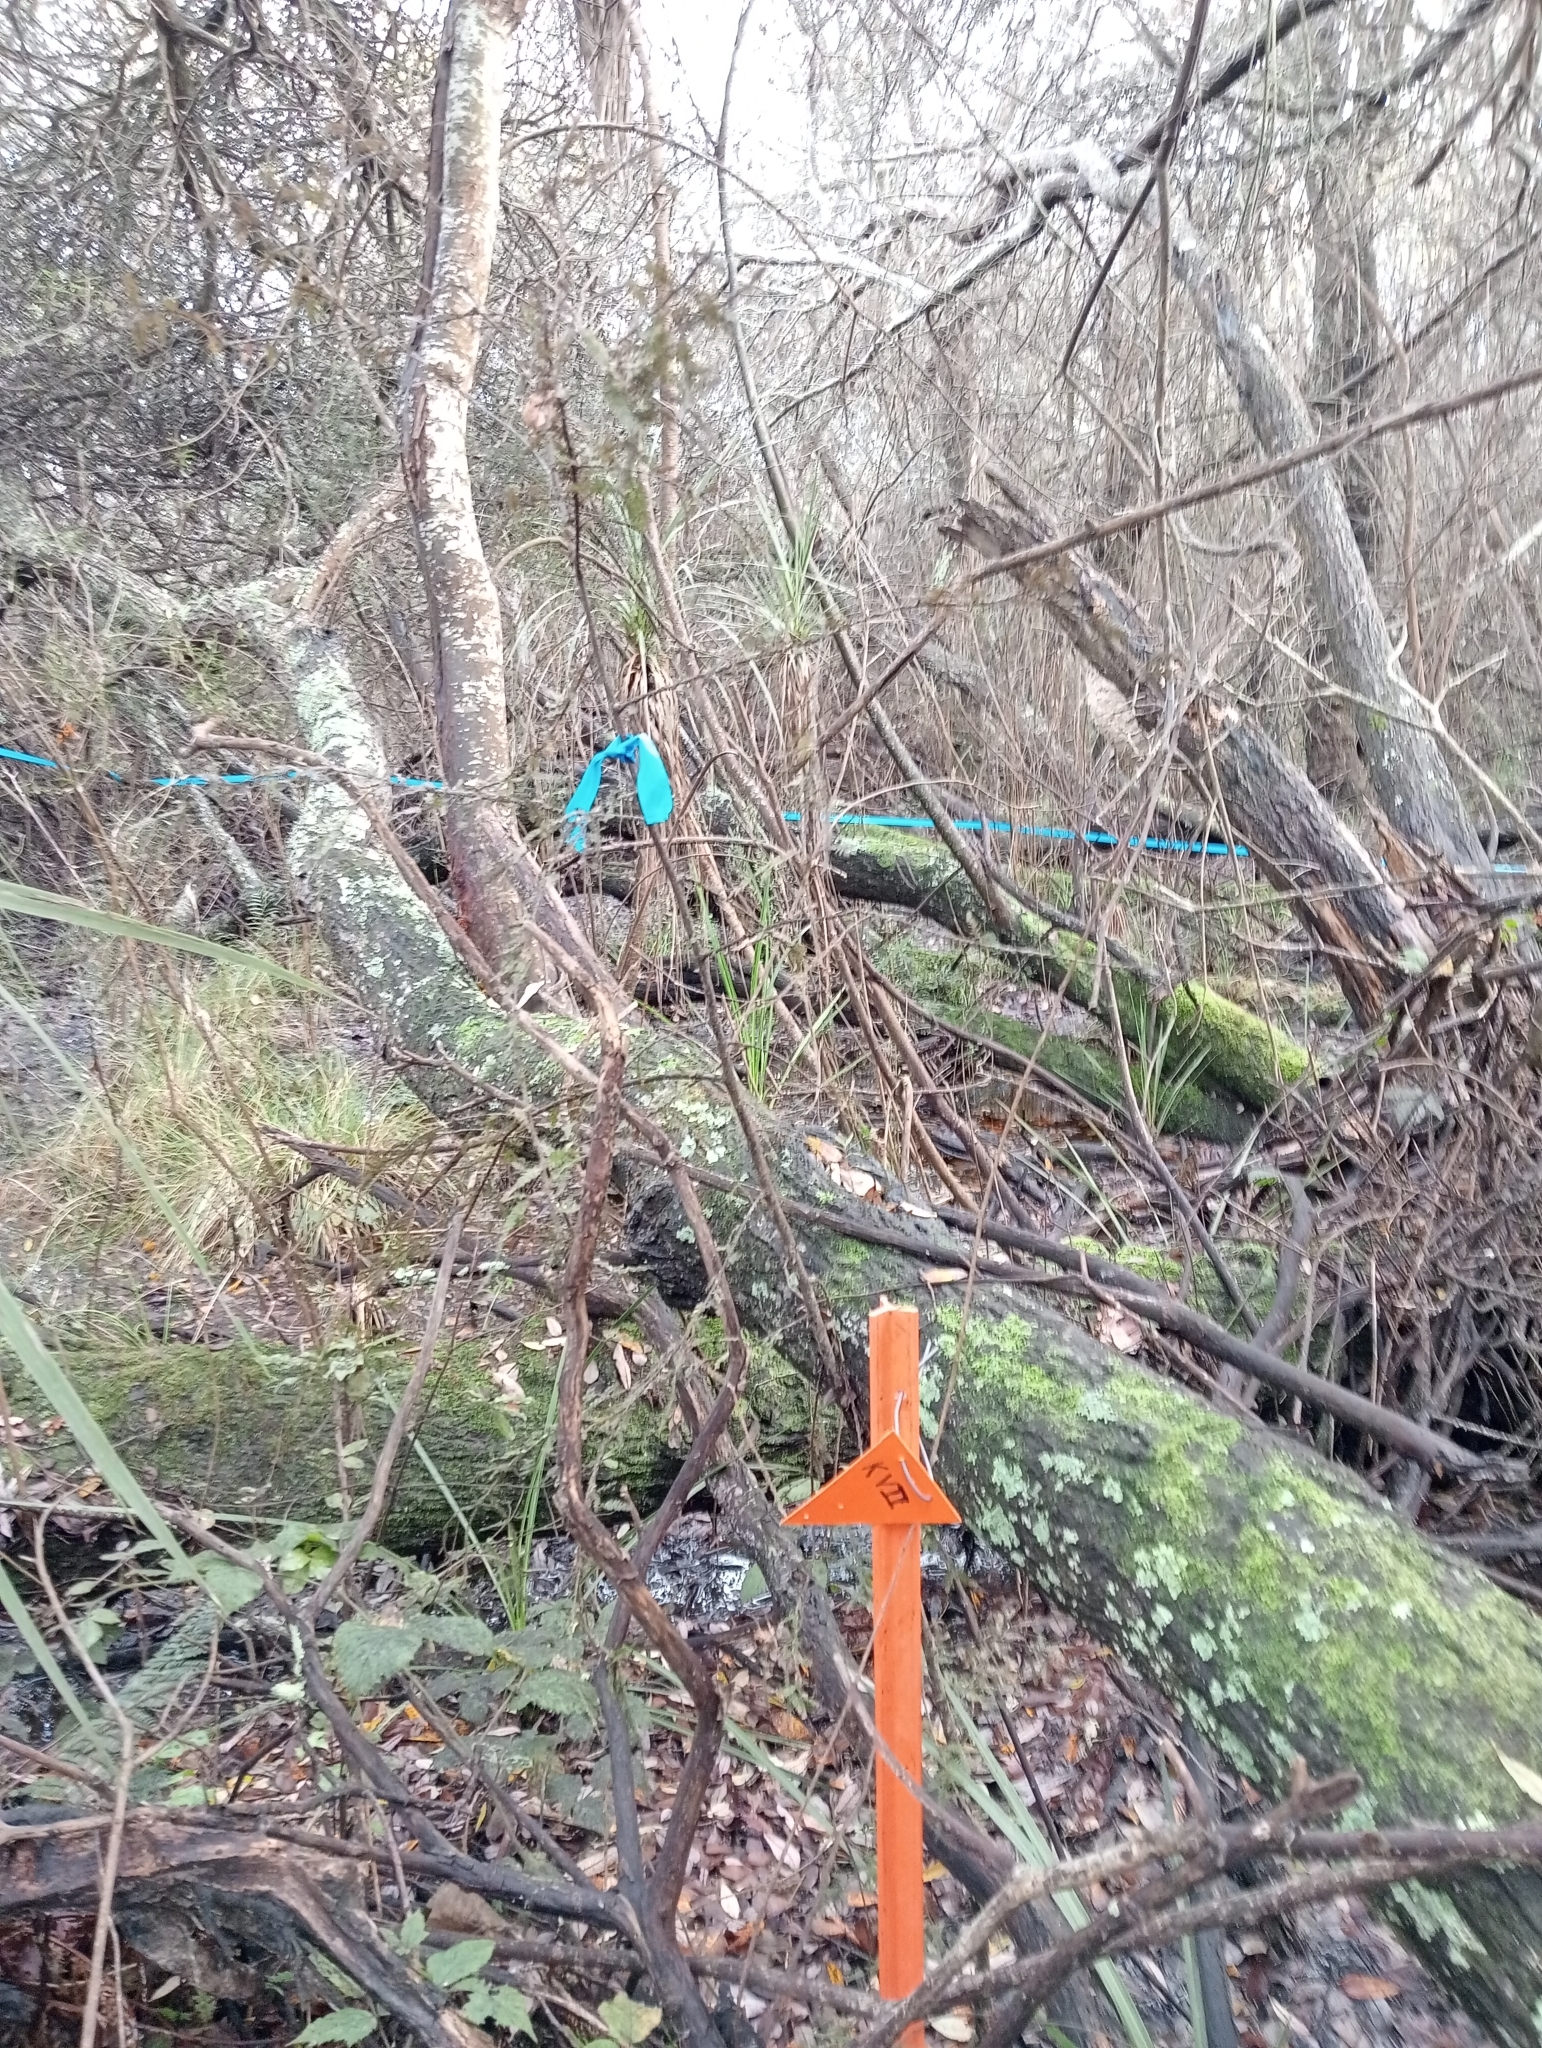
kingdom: Plantae
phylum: Tracheophyta
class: Pinopsida
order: Pinales
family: Podocarpaceae
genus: Dacrycarpus
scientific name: Dacrycarpus dacrydioides
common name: White pine
